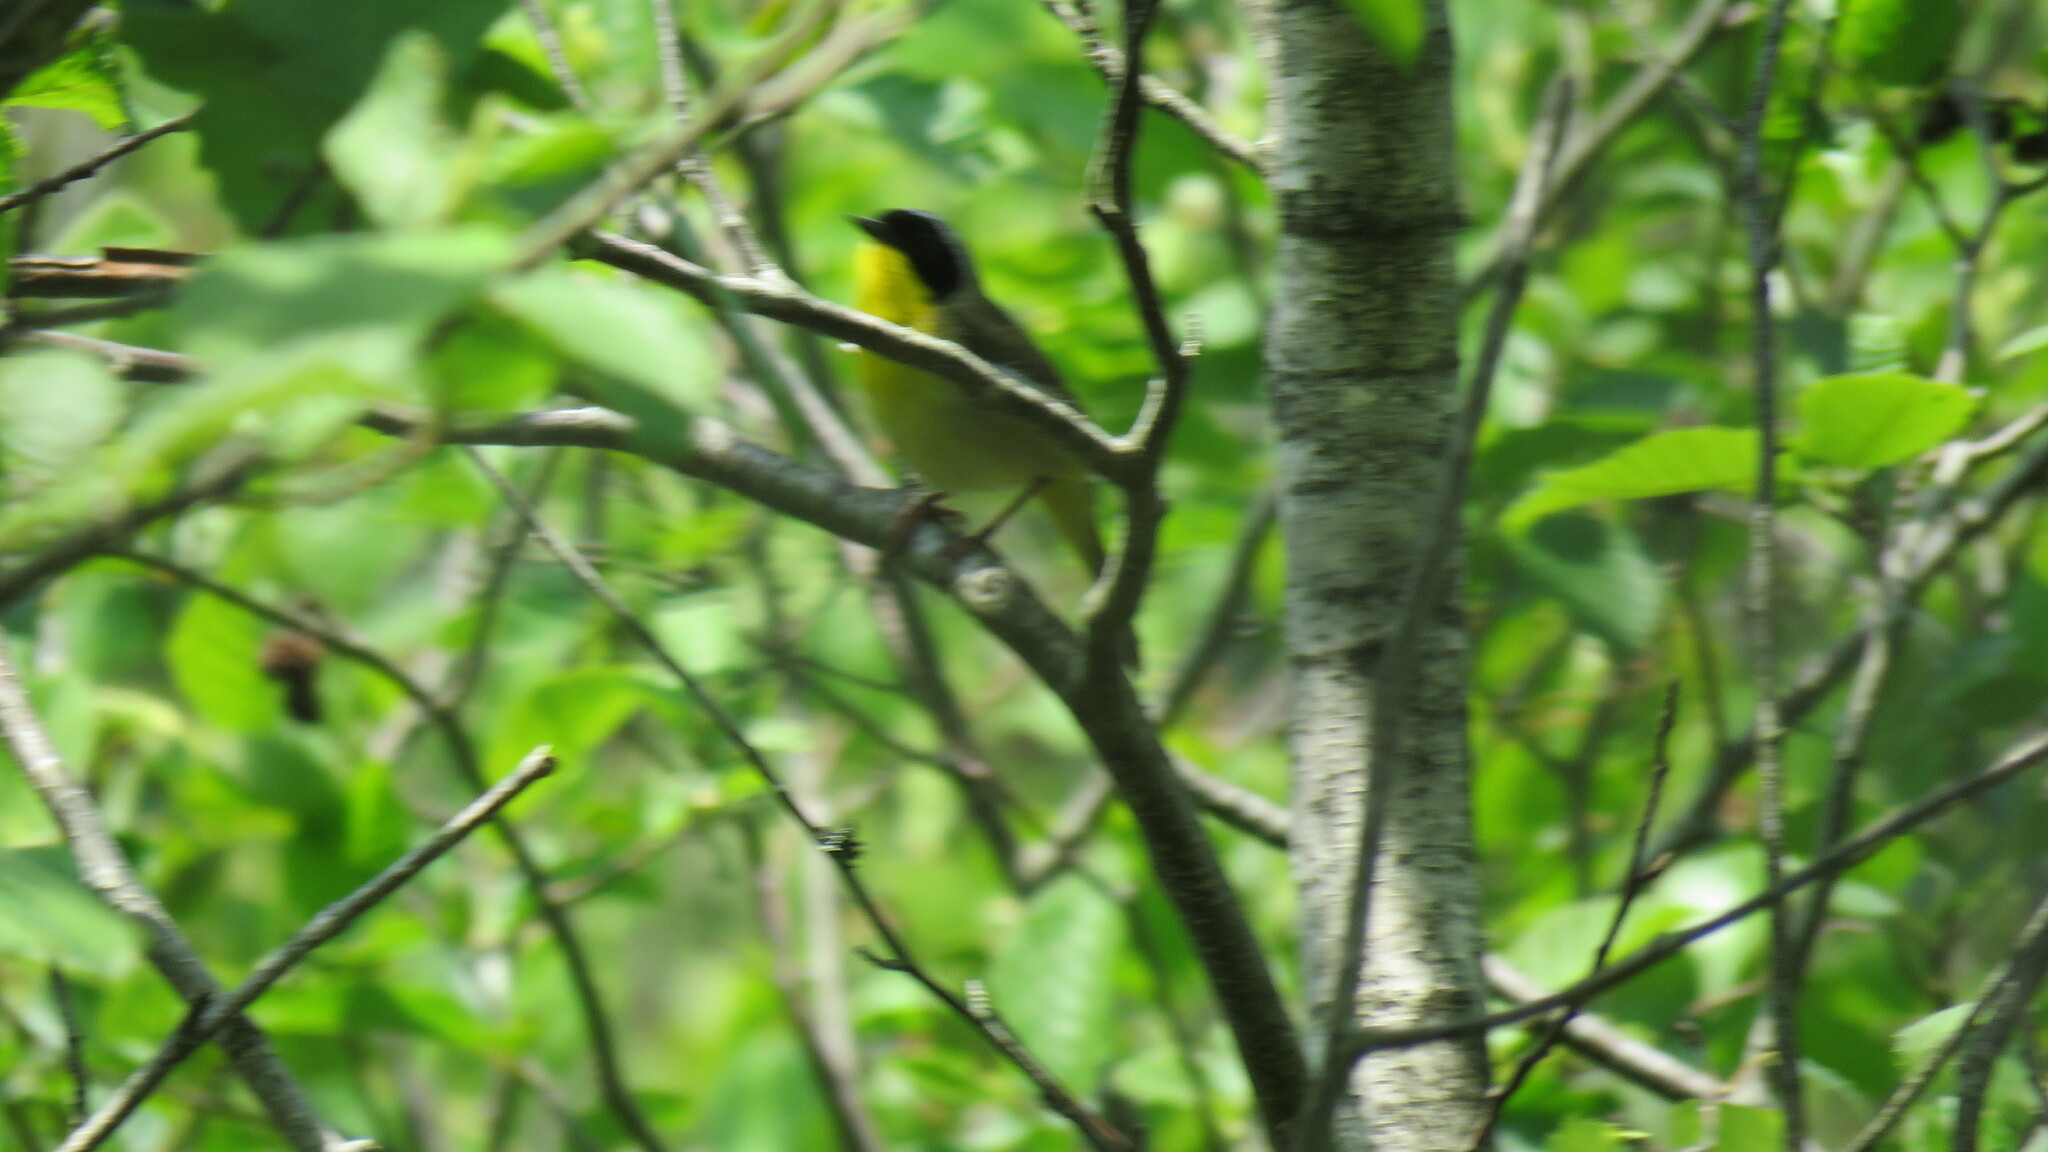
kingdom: Animalia
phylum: Chordata
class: Aves
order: Passeriformes
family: Parulidae
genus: Geothlypis
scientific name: Geothlypis trichas
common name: Common yellowthroat
